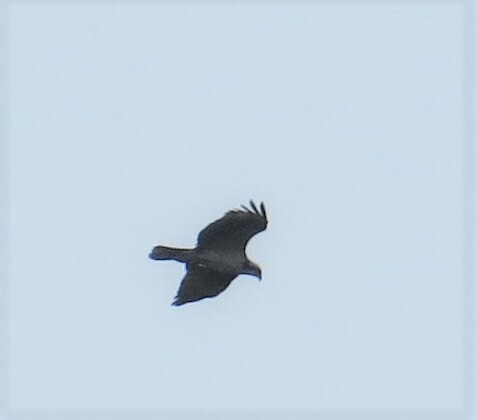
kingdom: Animalia
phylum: Chordata
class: Aves
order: Accipitriformes
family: Pandionidae
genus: Pandion
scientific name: Pandion haliaetus
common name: Osprey
